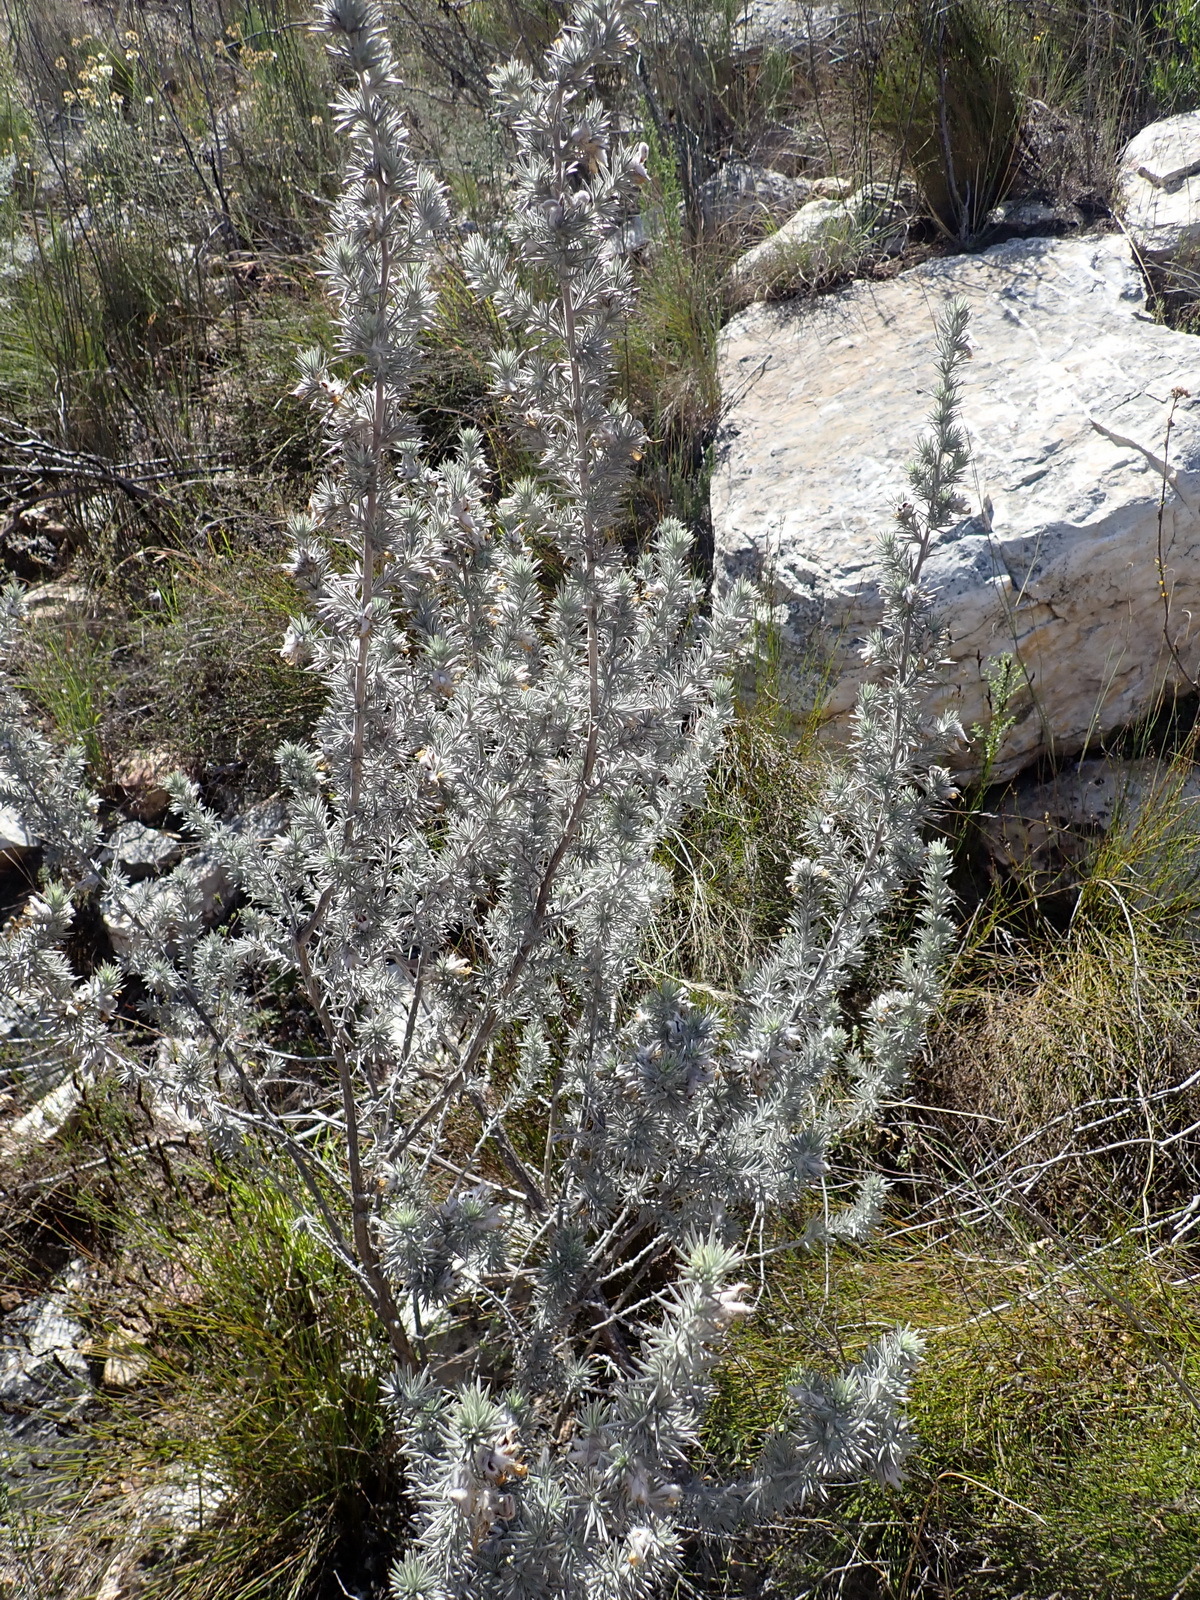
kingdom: Plantae
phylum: Tracheophyta
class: Magnoliopsida
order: Fabales
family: Fabaceae
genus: Aspalathus
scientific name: Aspalathus hystrix
